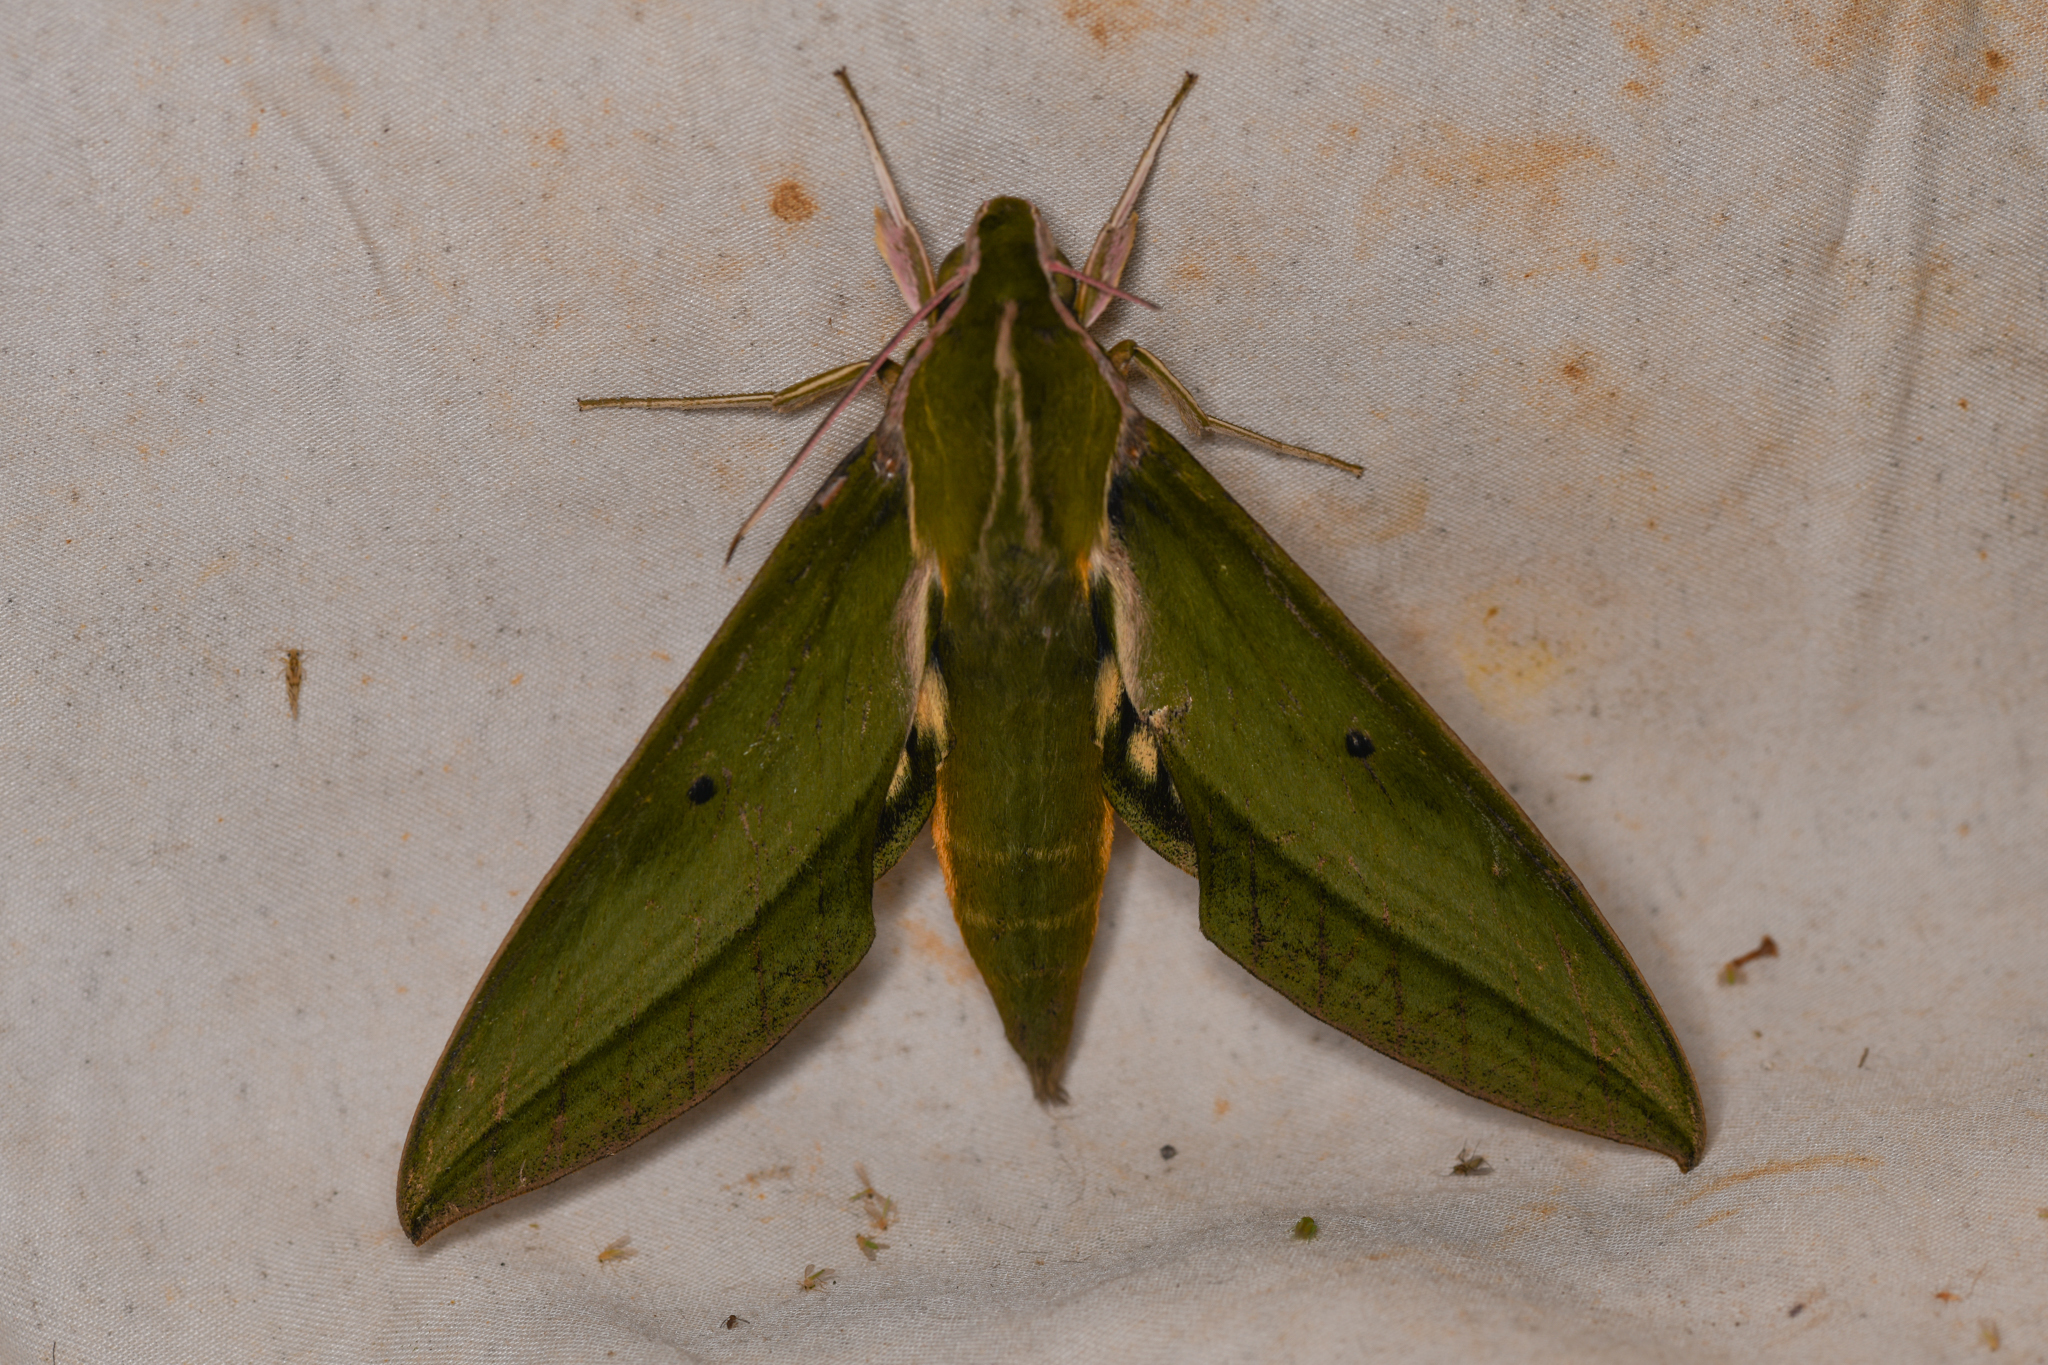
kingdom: Animalia
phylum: Arthropoda
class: Insecta
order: Lepidoptera
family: Sphingidae
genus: Xylophanes
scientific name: Xylophanes virescens
